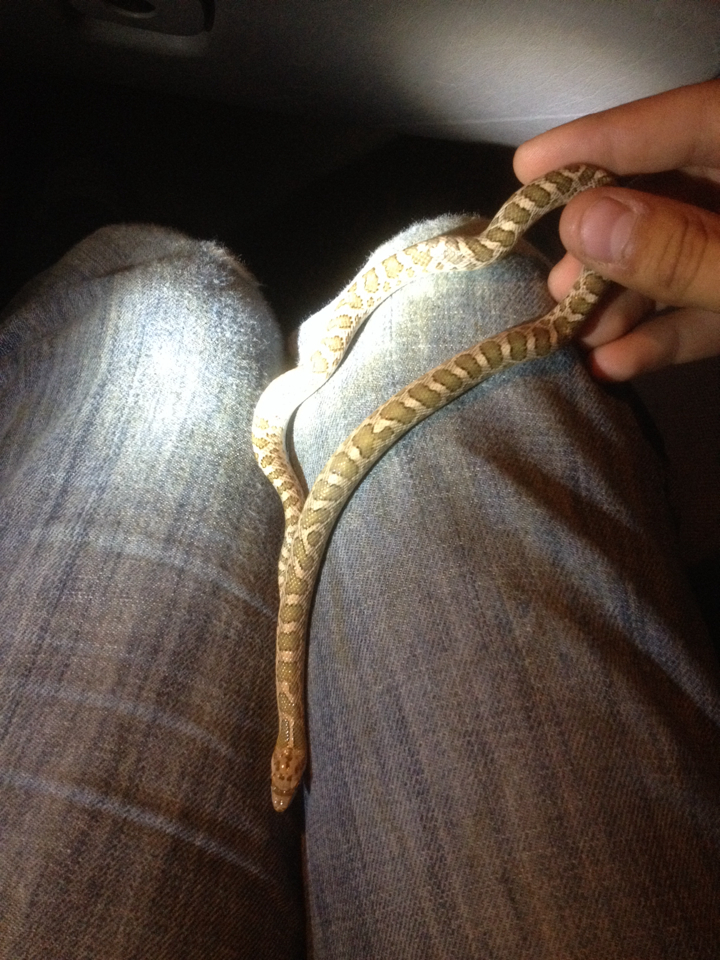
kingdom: Animalia
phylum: Chordata
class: Squamata
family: Colubridae
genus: Arizona
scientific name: Arizona elegans
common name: Glossy snake
